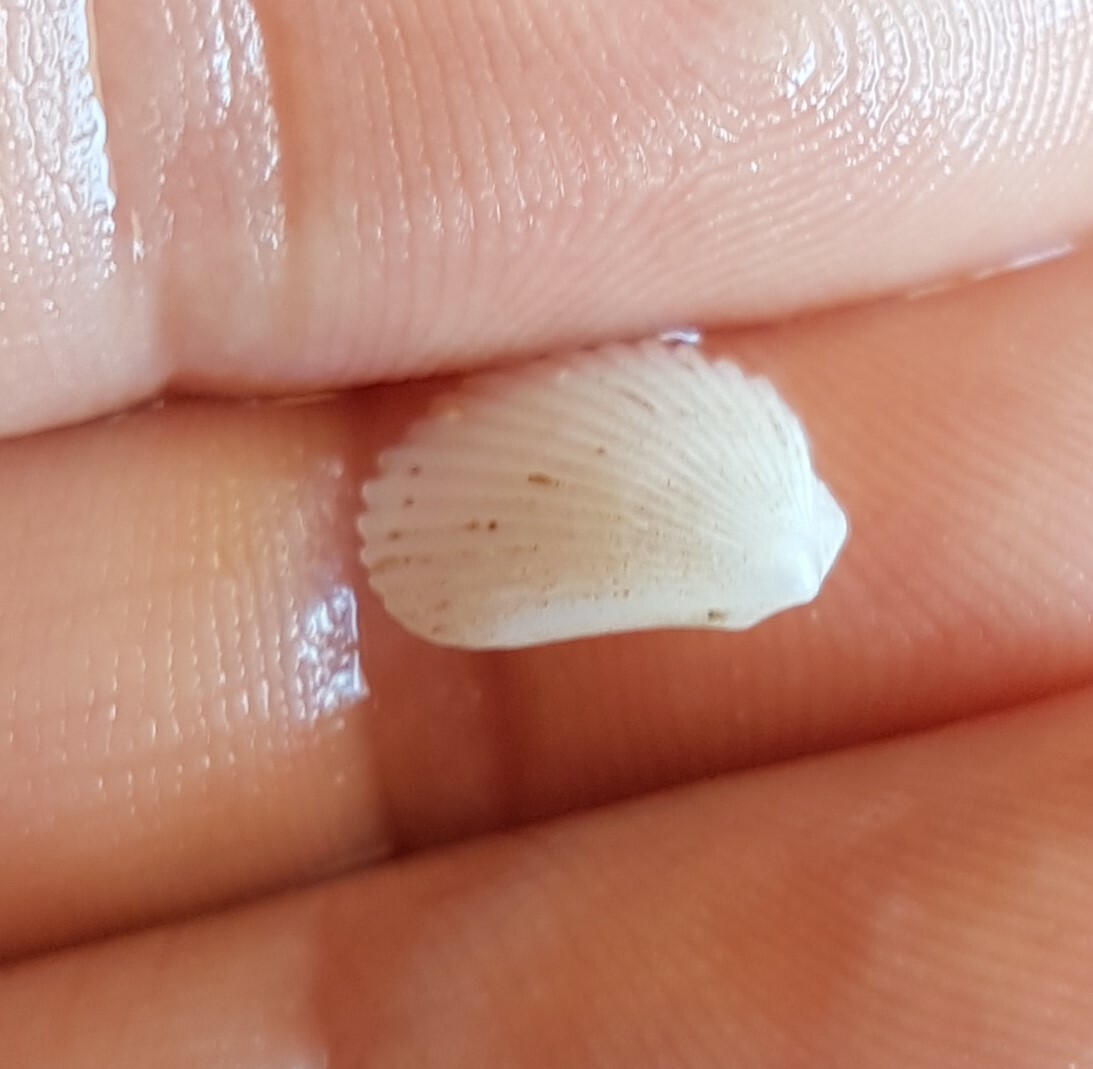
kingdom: Animalia
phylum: Mollusca
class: Bivalvia
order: Limida
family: Limidae
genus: Lima
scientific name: Lima lima
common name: Frilled file shell
